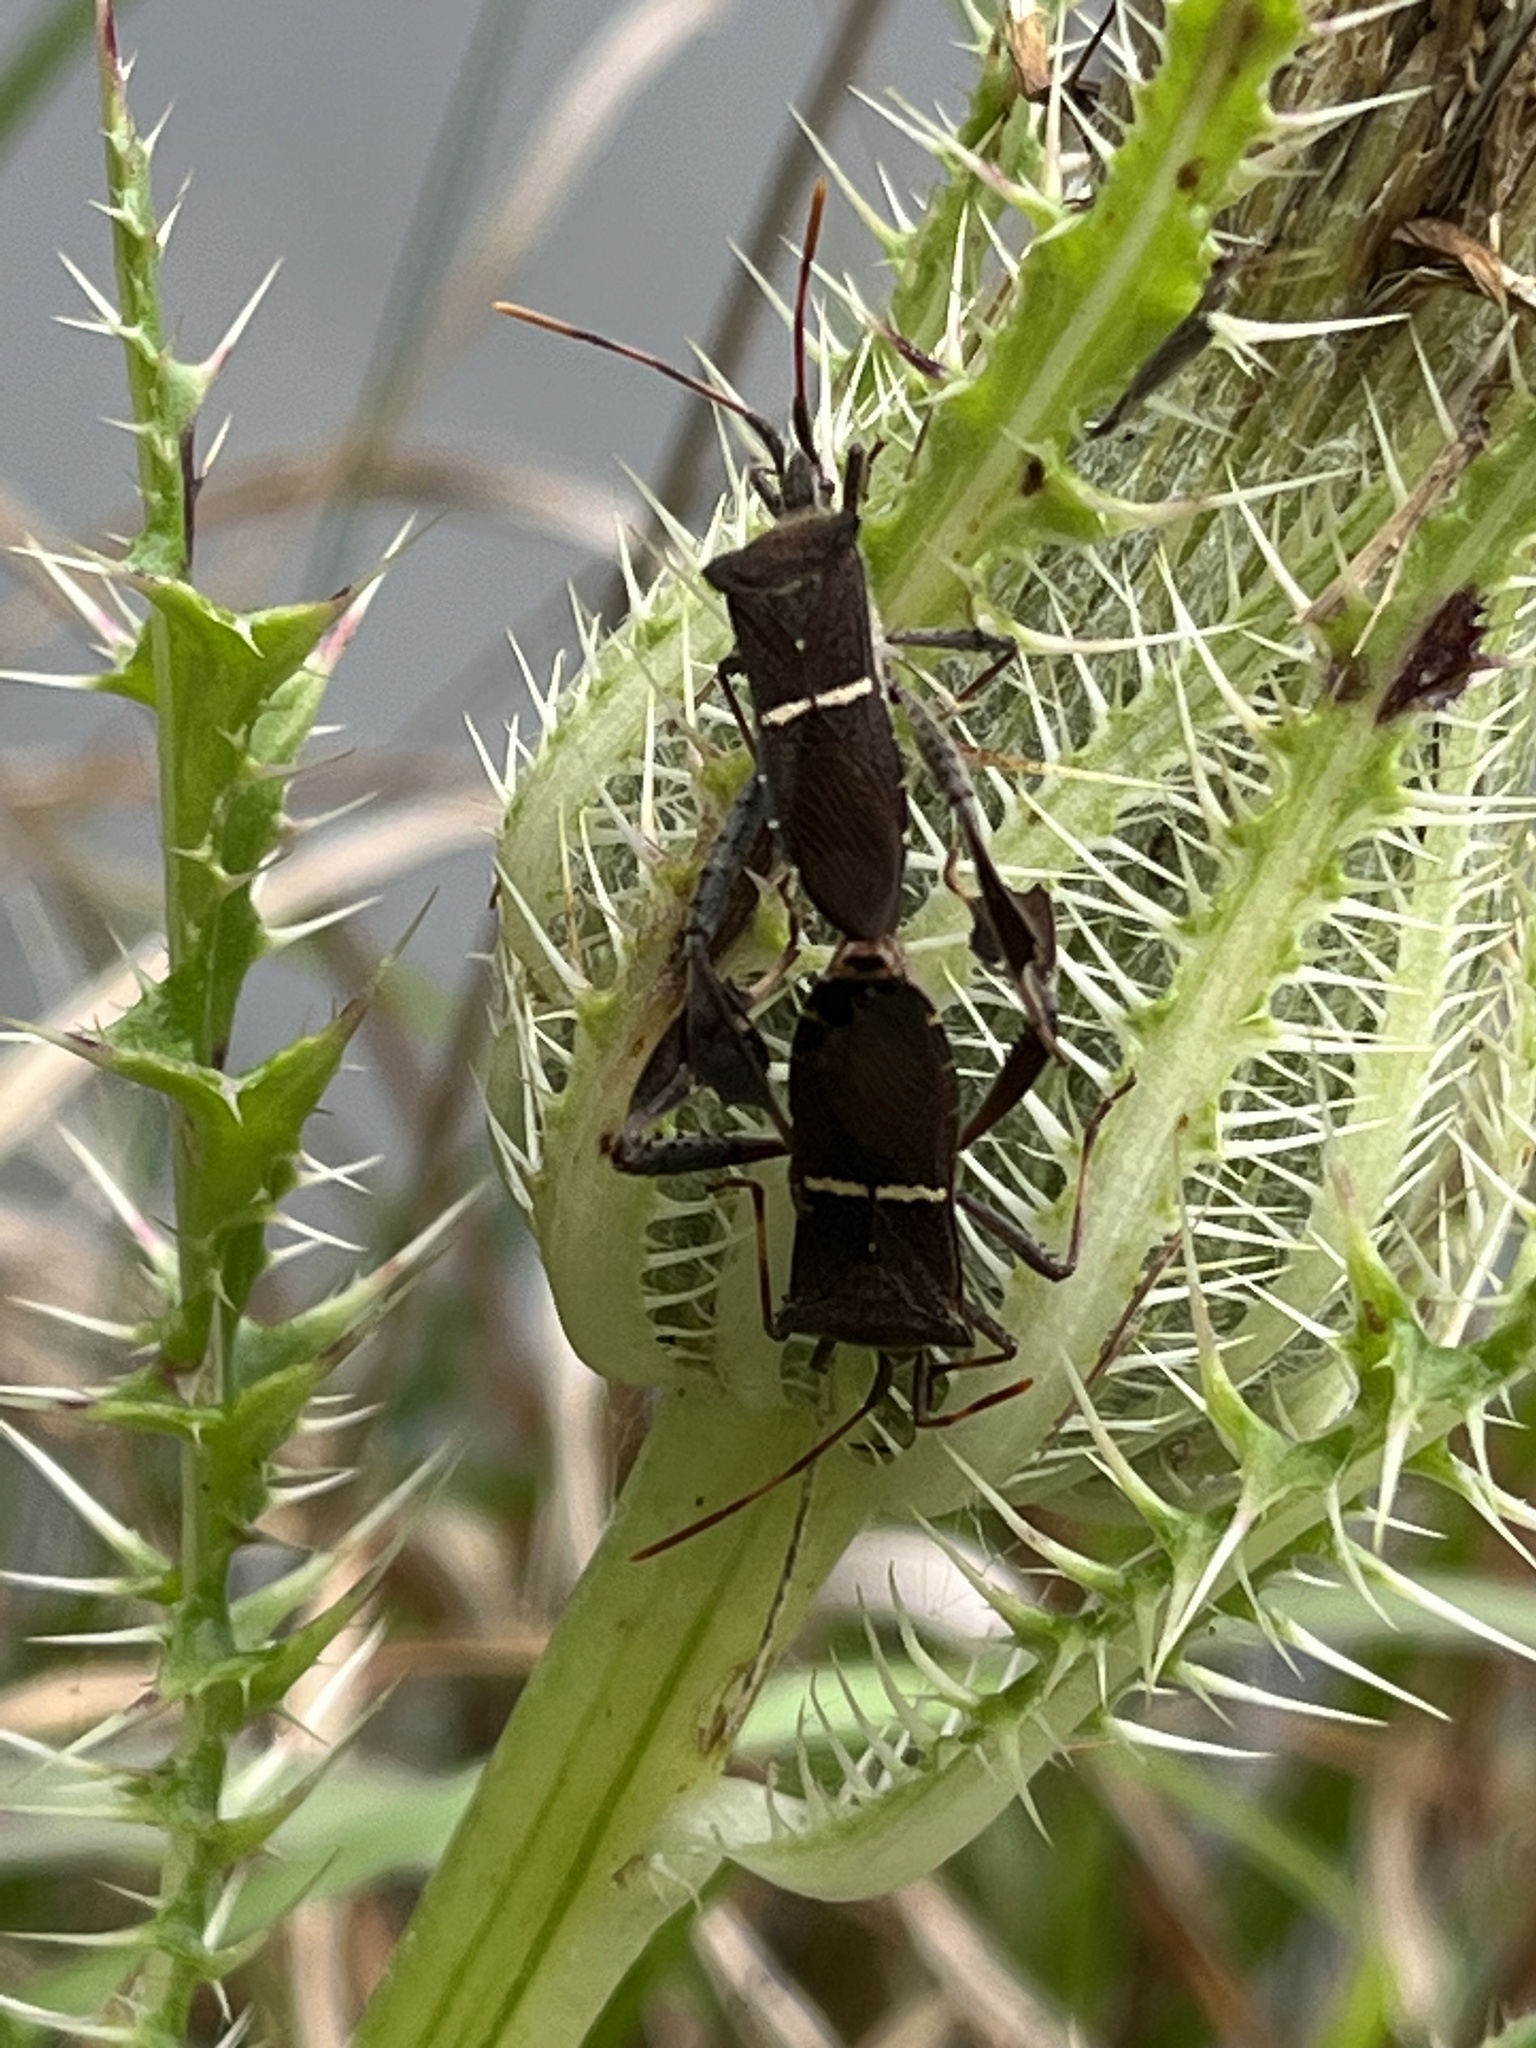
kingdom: Animalia
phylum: Arthropoda
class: Insecta
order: Hemiptera
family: Coreidae
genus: Leptoglossus
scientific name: Leptoglossus phyllopus
